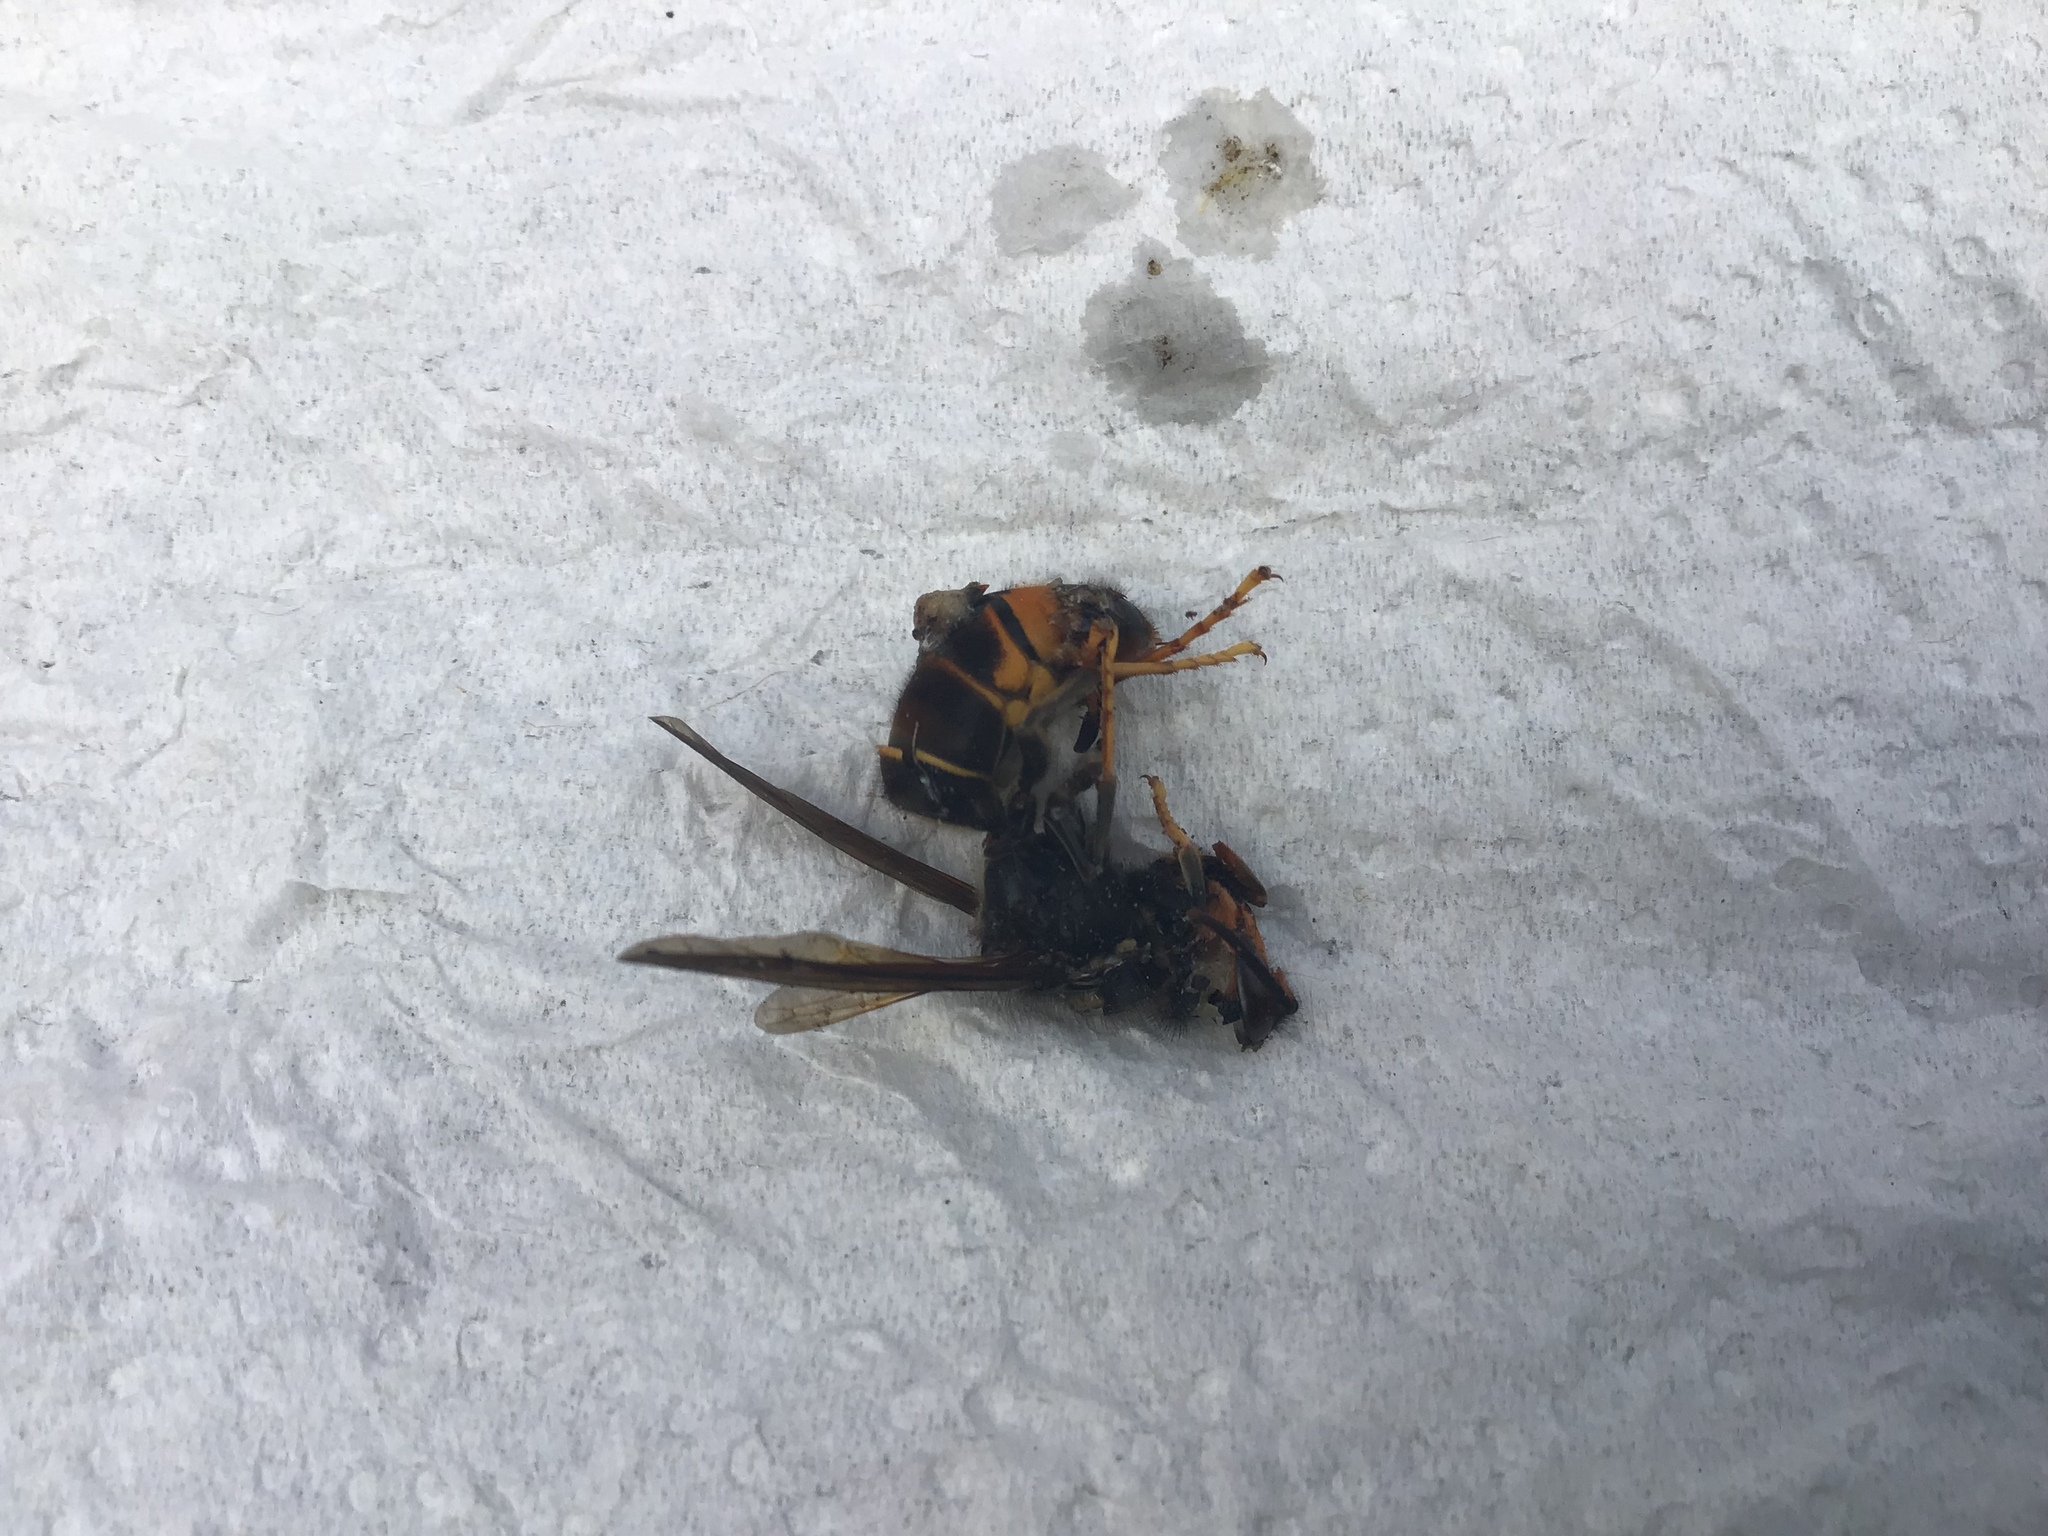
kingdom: Animalia
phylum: Arthropoda
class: Insecta
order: Hymenoptera
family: Vespidae
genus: Vespa
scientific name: Vespa velutina
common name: Asian hornet
